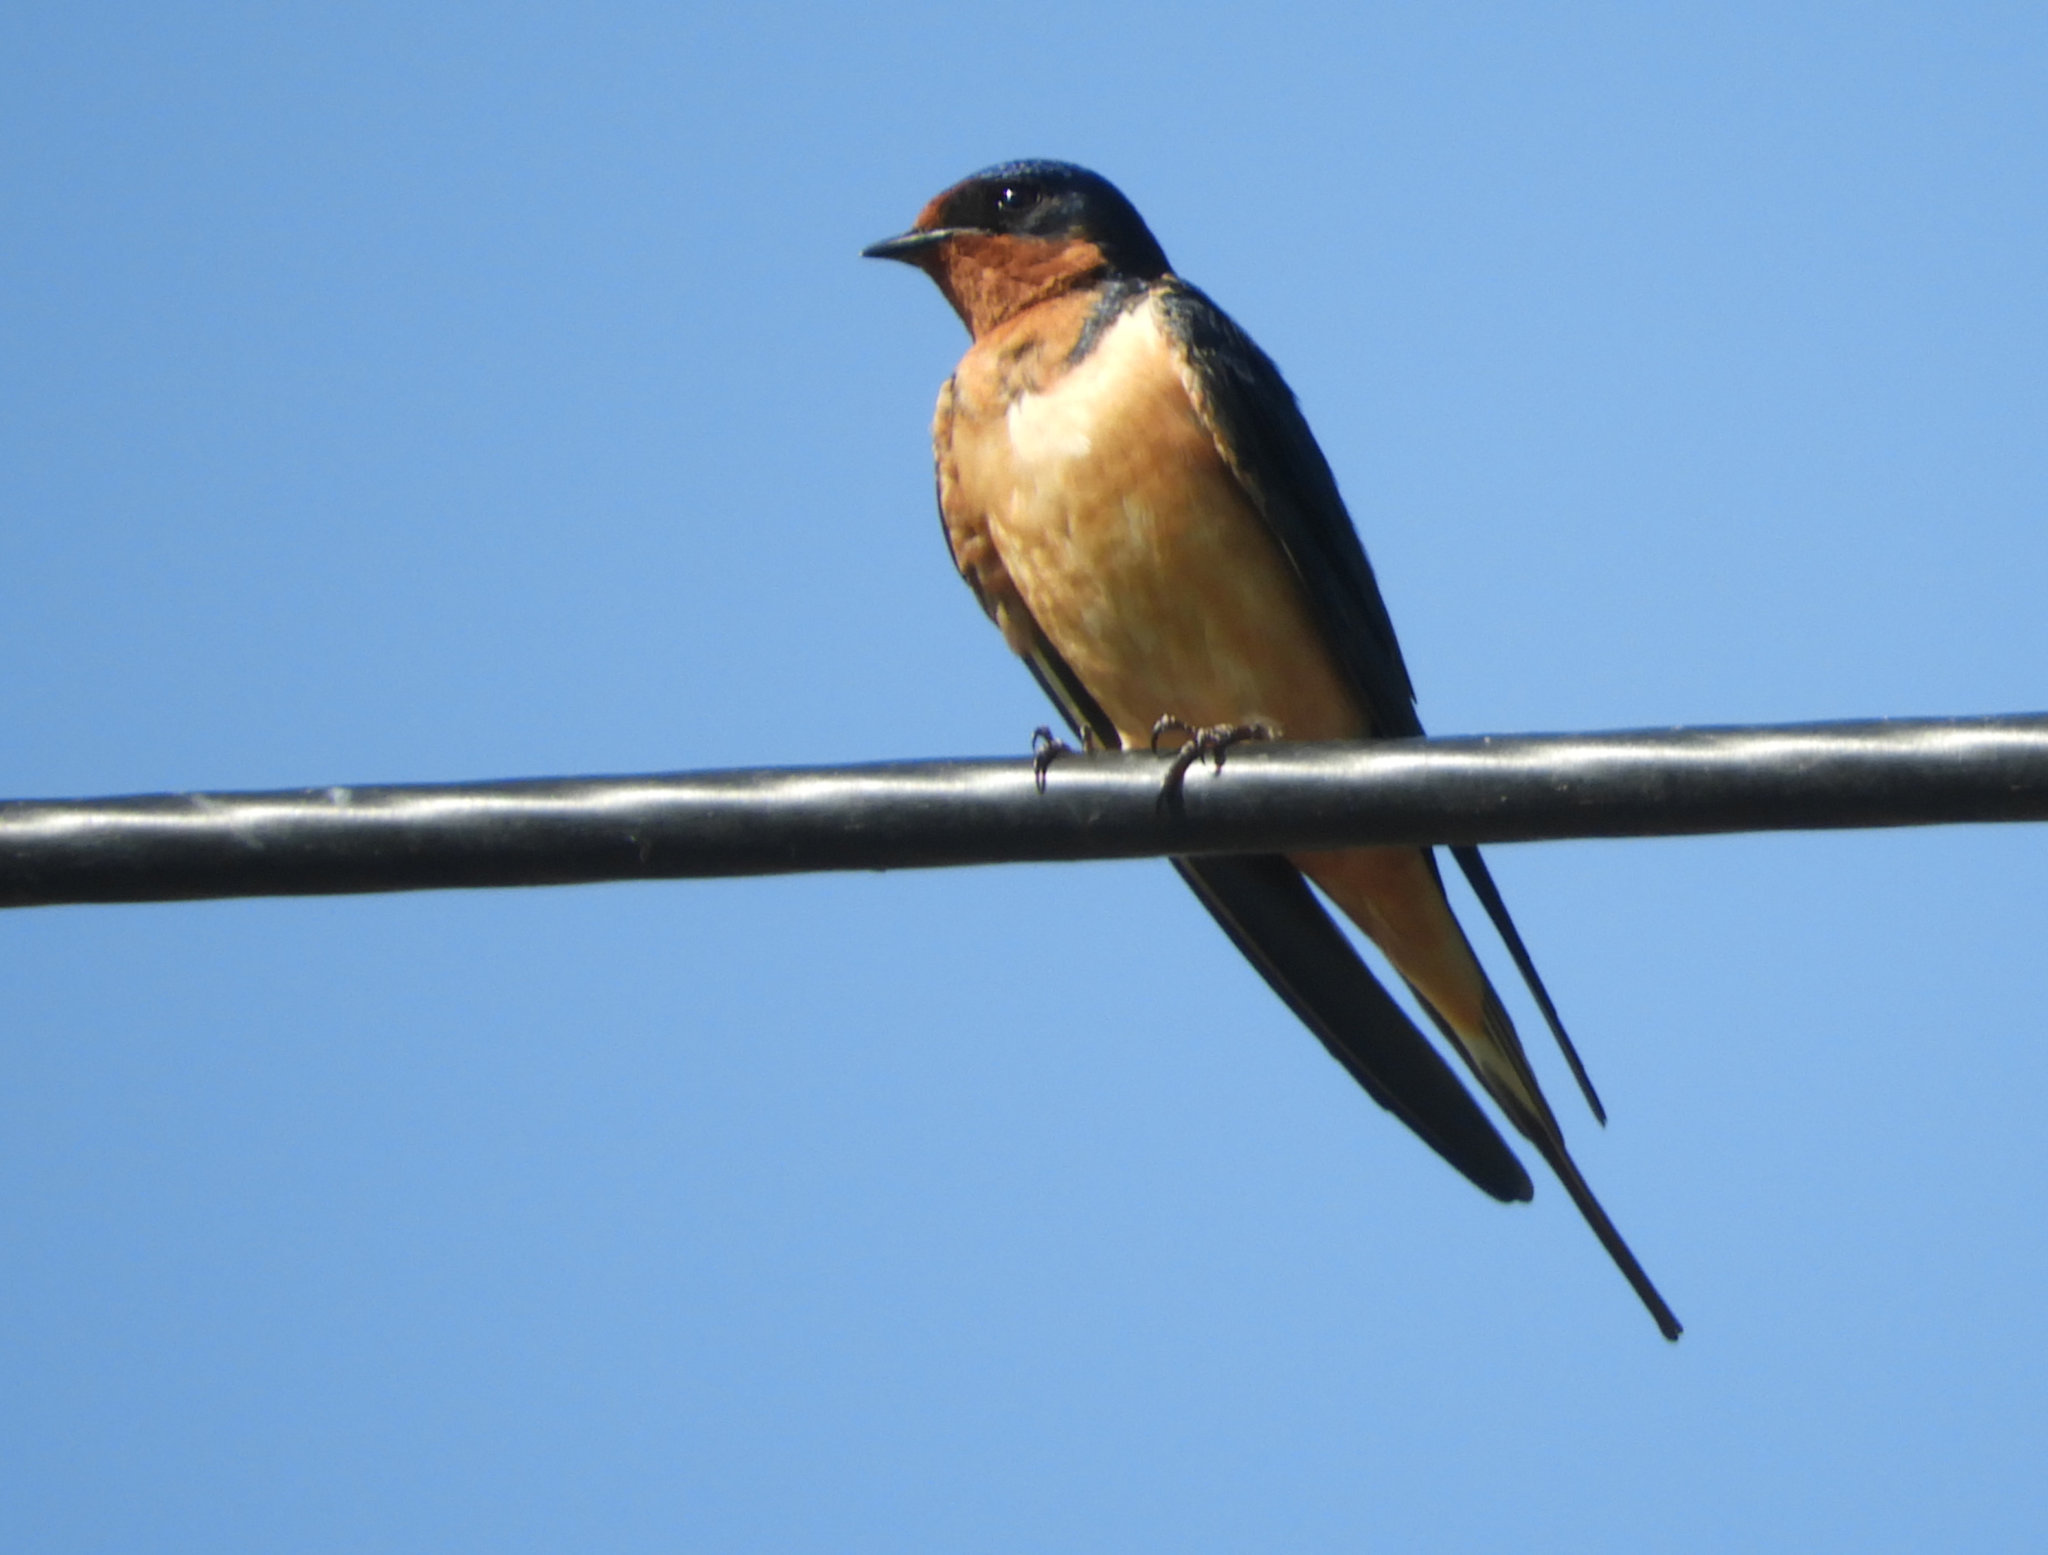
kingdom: Animalia
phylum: Chordata
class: Aves
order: Passeriformes
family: Hirundinidae
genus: Hirundo
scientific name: Hirundo rustica
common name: Barn swallow
